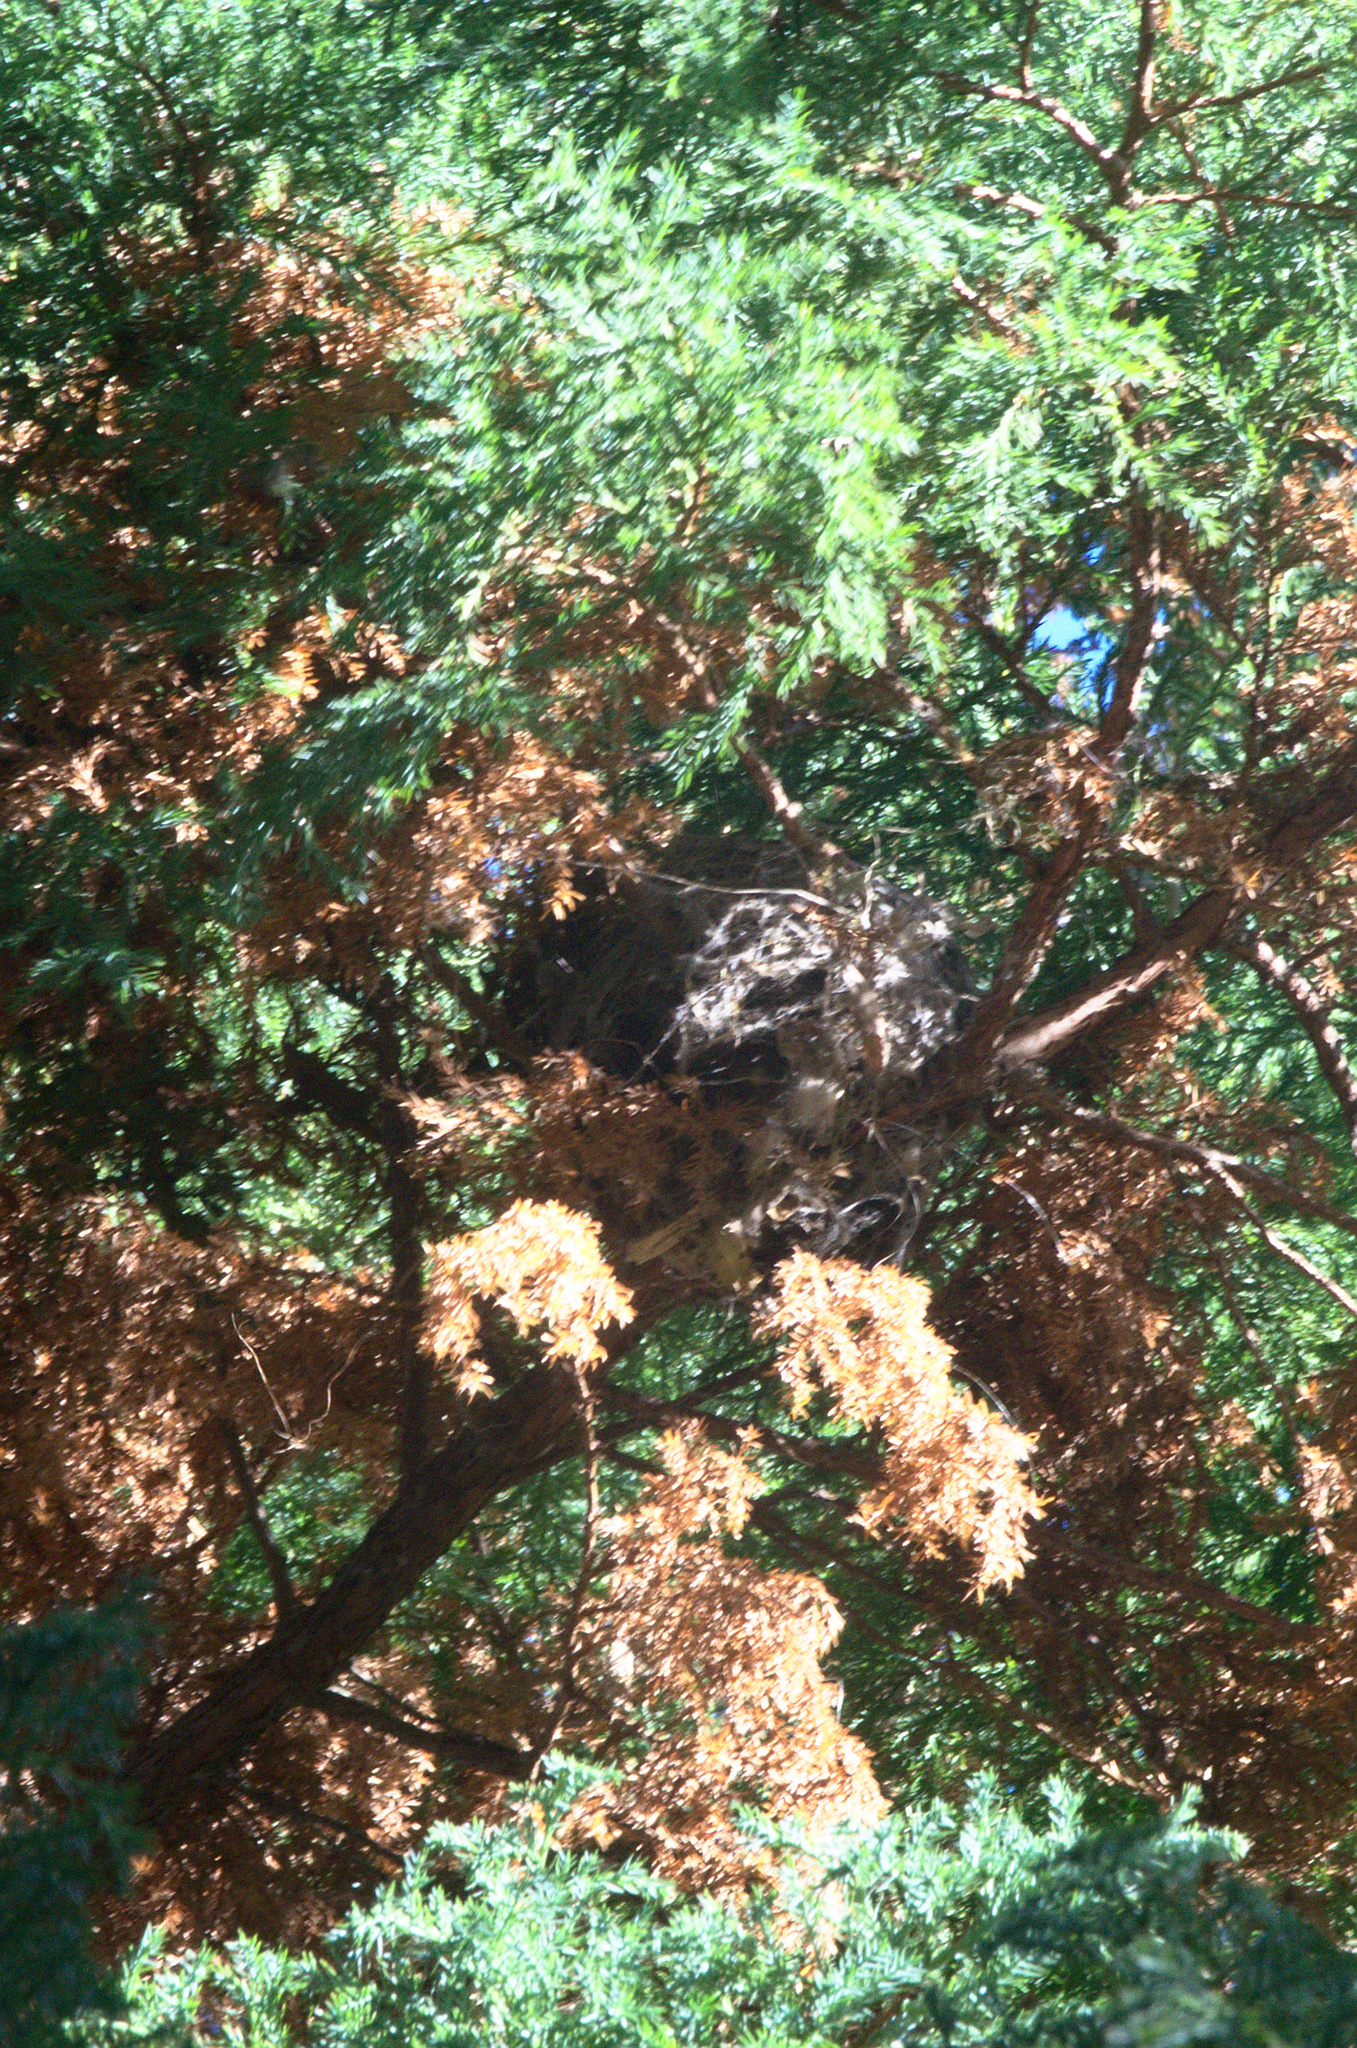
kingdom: Animalia
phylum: Chordata
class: Aves
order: Passeriformes
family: Rhipiduridae
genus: Rhipidura
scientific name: Rhipidura fuliginosa
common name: New zealand fantail
